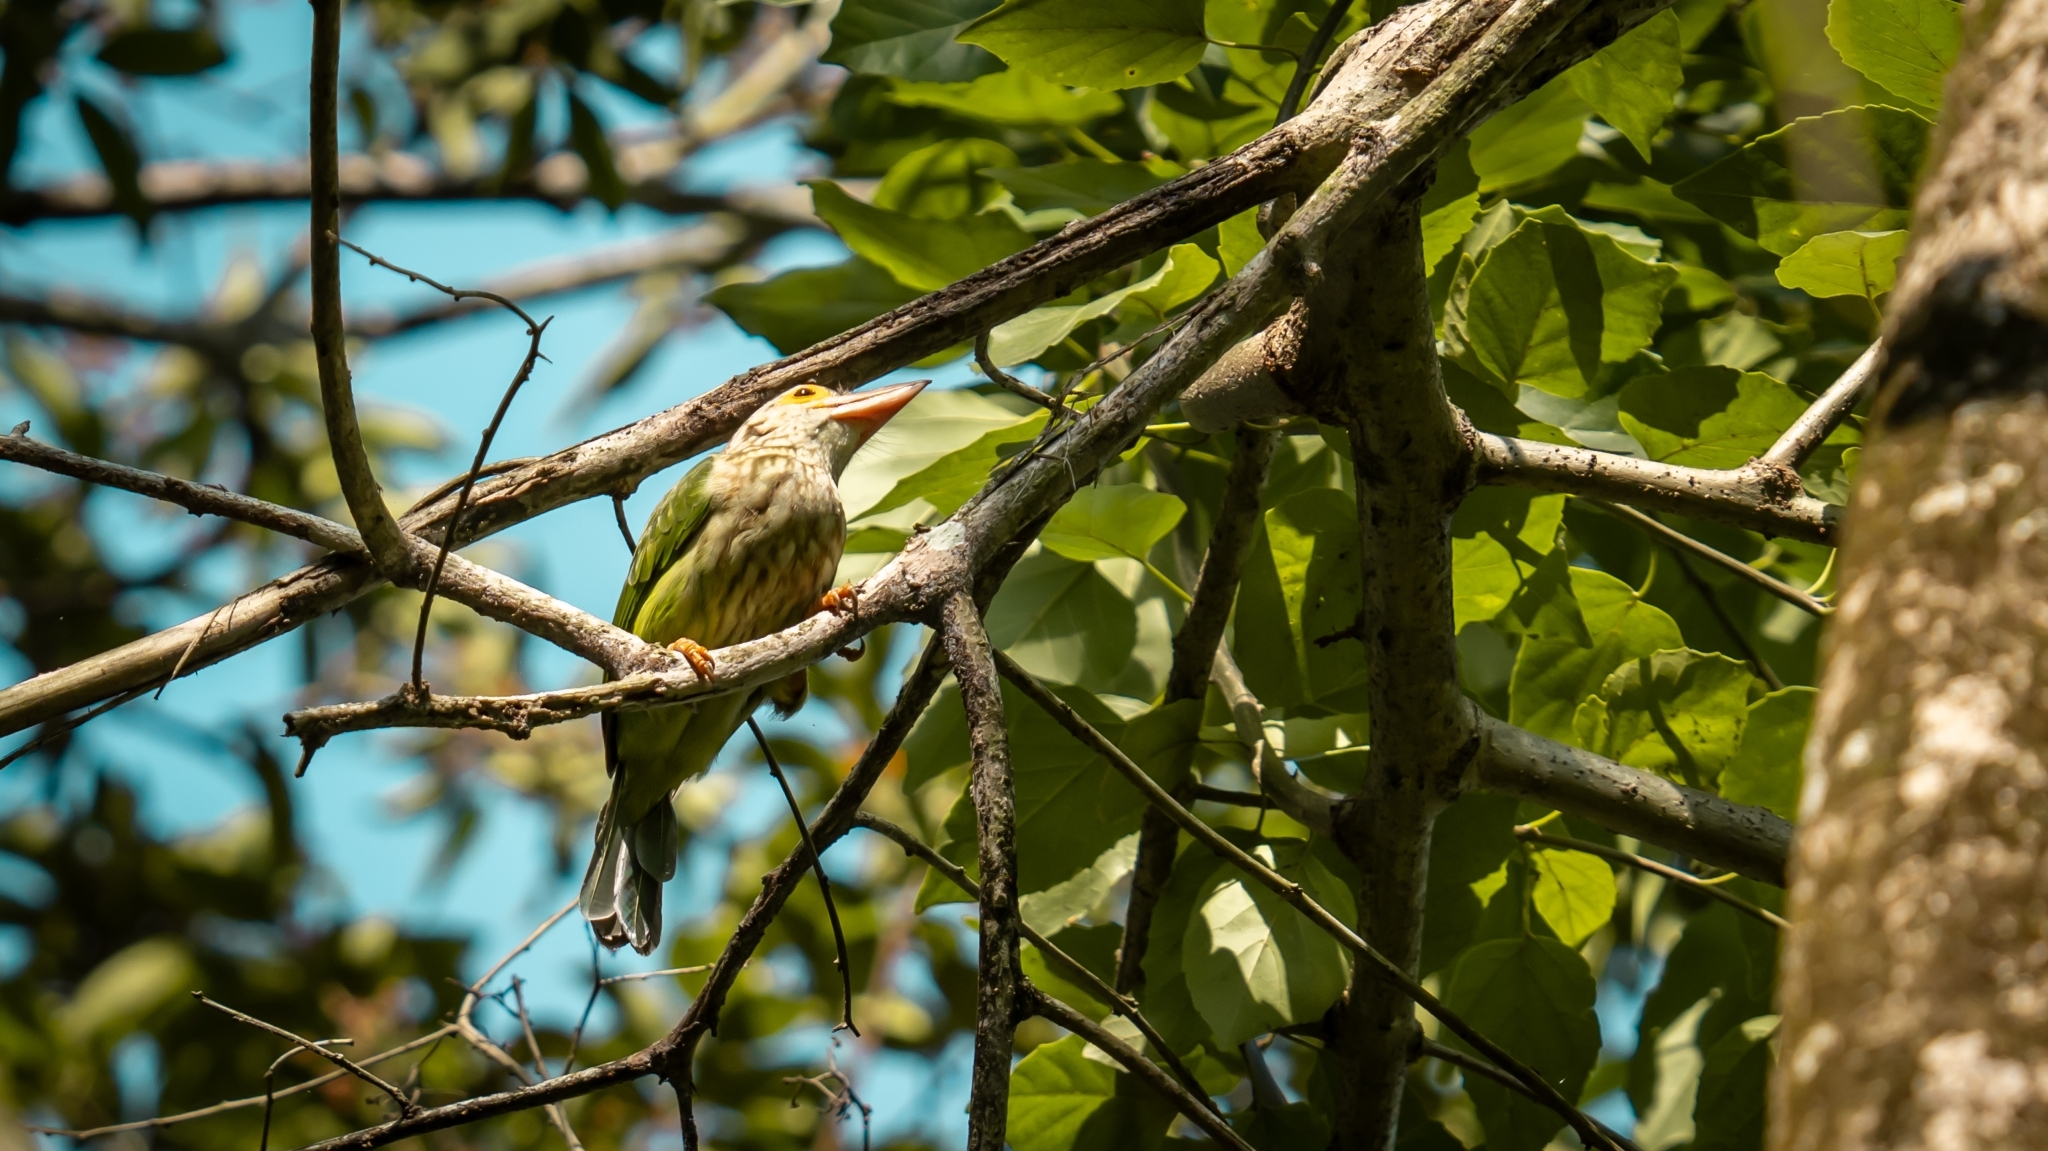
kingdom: Animalia
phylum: Chordata
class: Aves
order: Piciformes
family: Megalaimidae
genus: Psilopogon
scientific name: Psilopogon lineatus
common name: Lineated barbet
